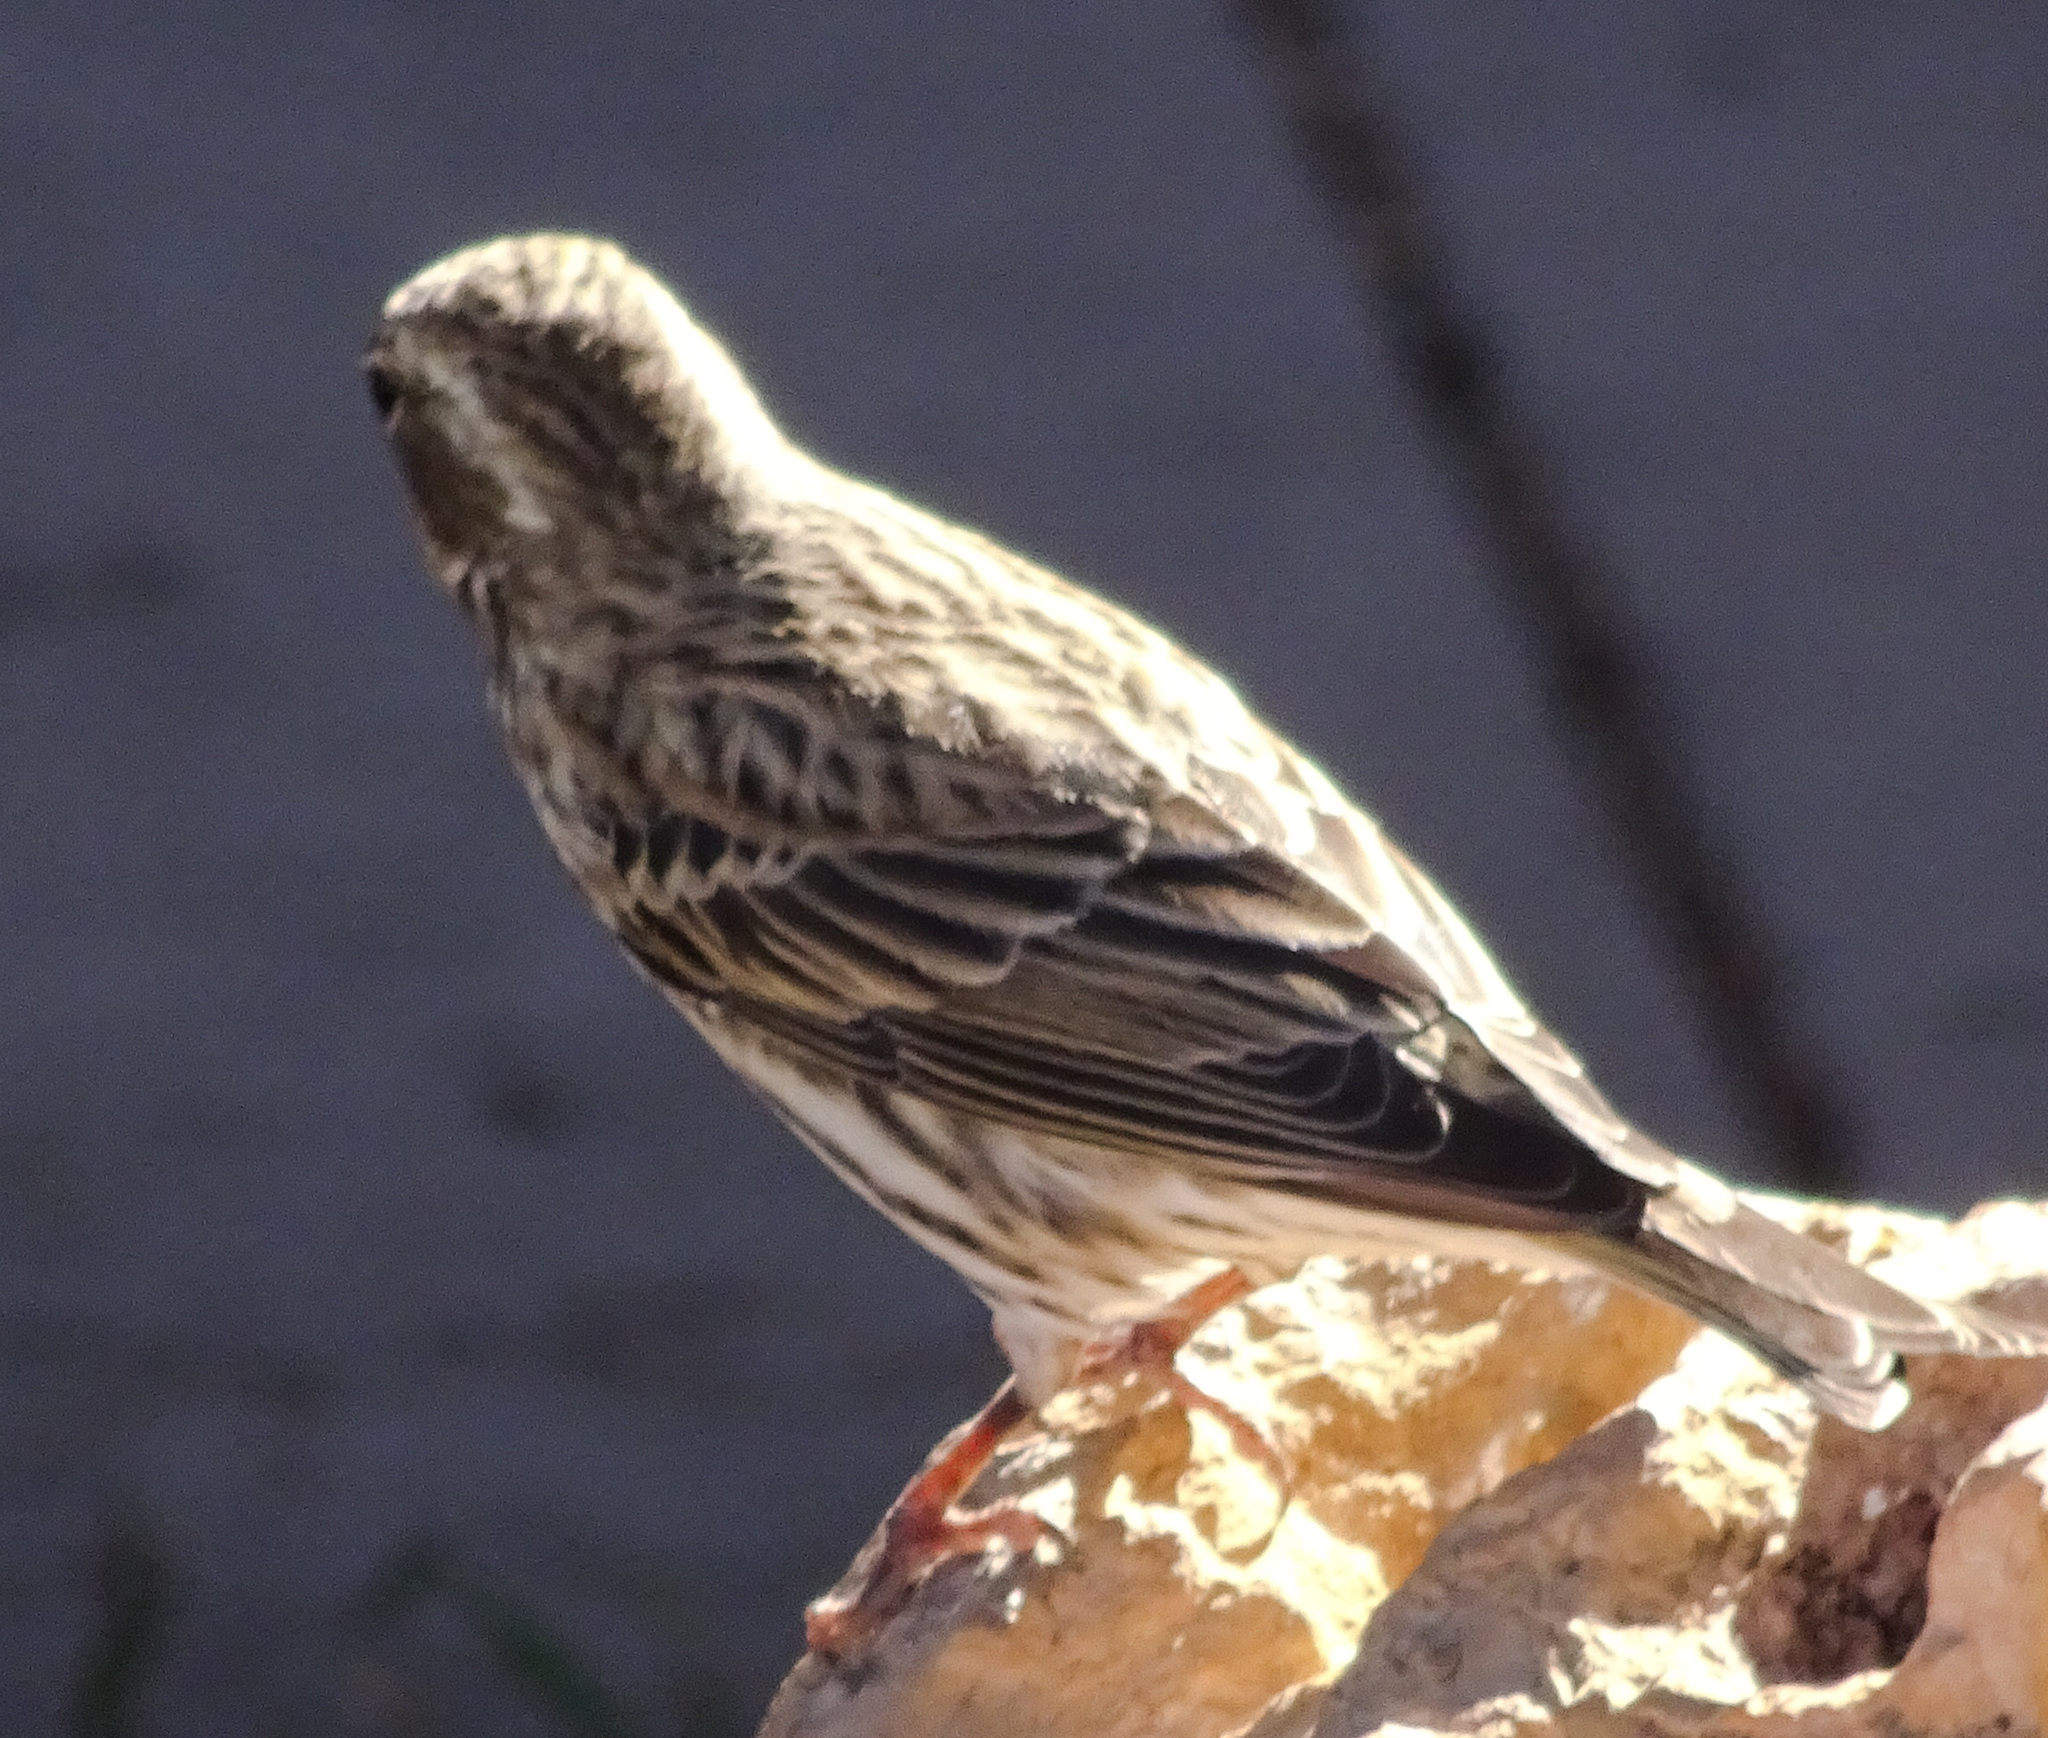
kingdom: Animalia
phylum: Chordata
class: Aves
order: Passeriformes
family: Fringillidae
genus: Haemorhous
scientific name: Haemorhous cassinii
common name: Cassin's finch
